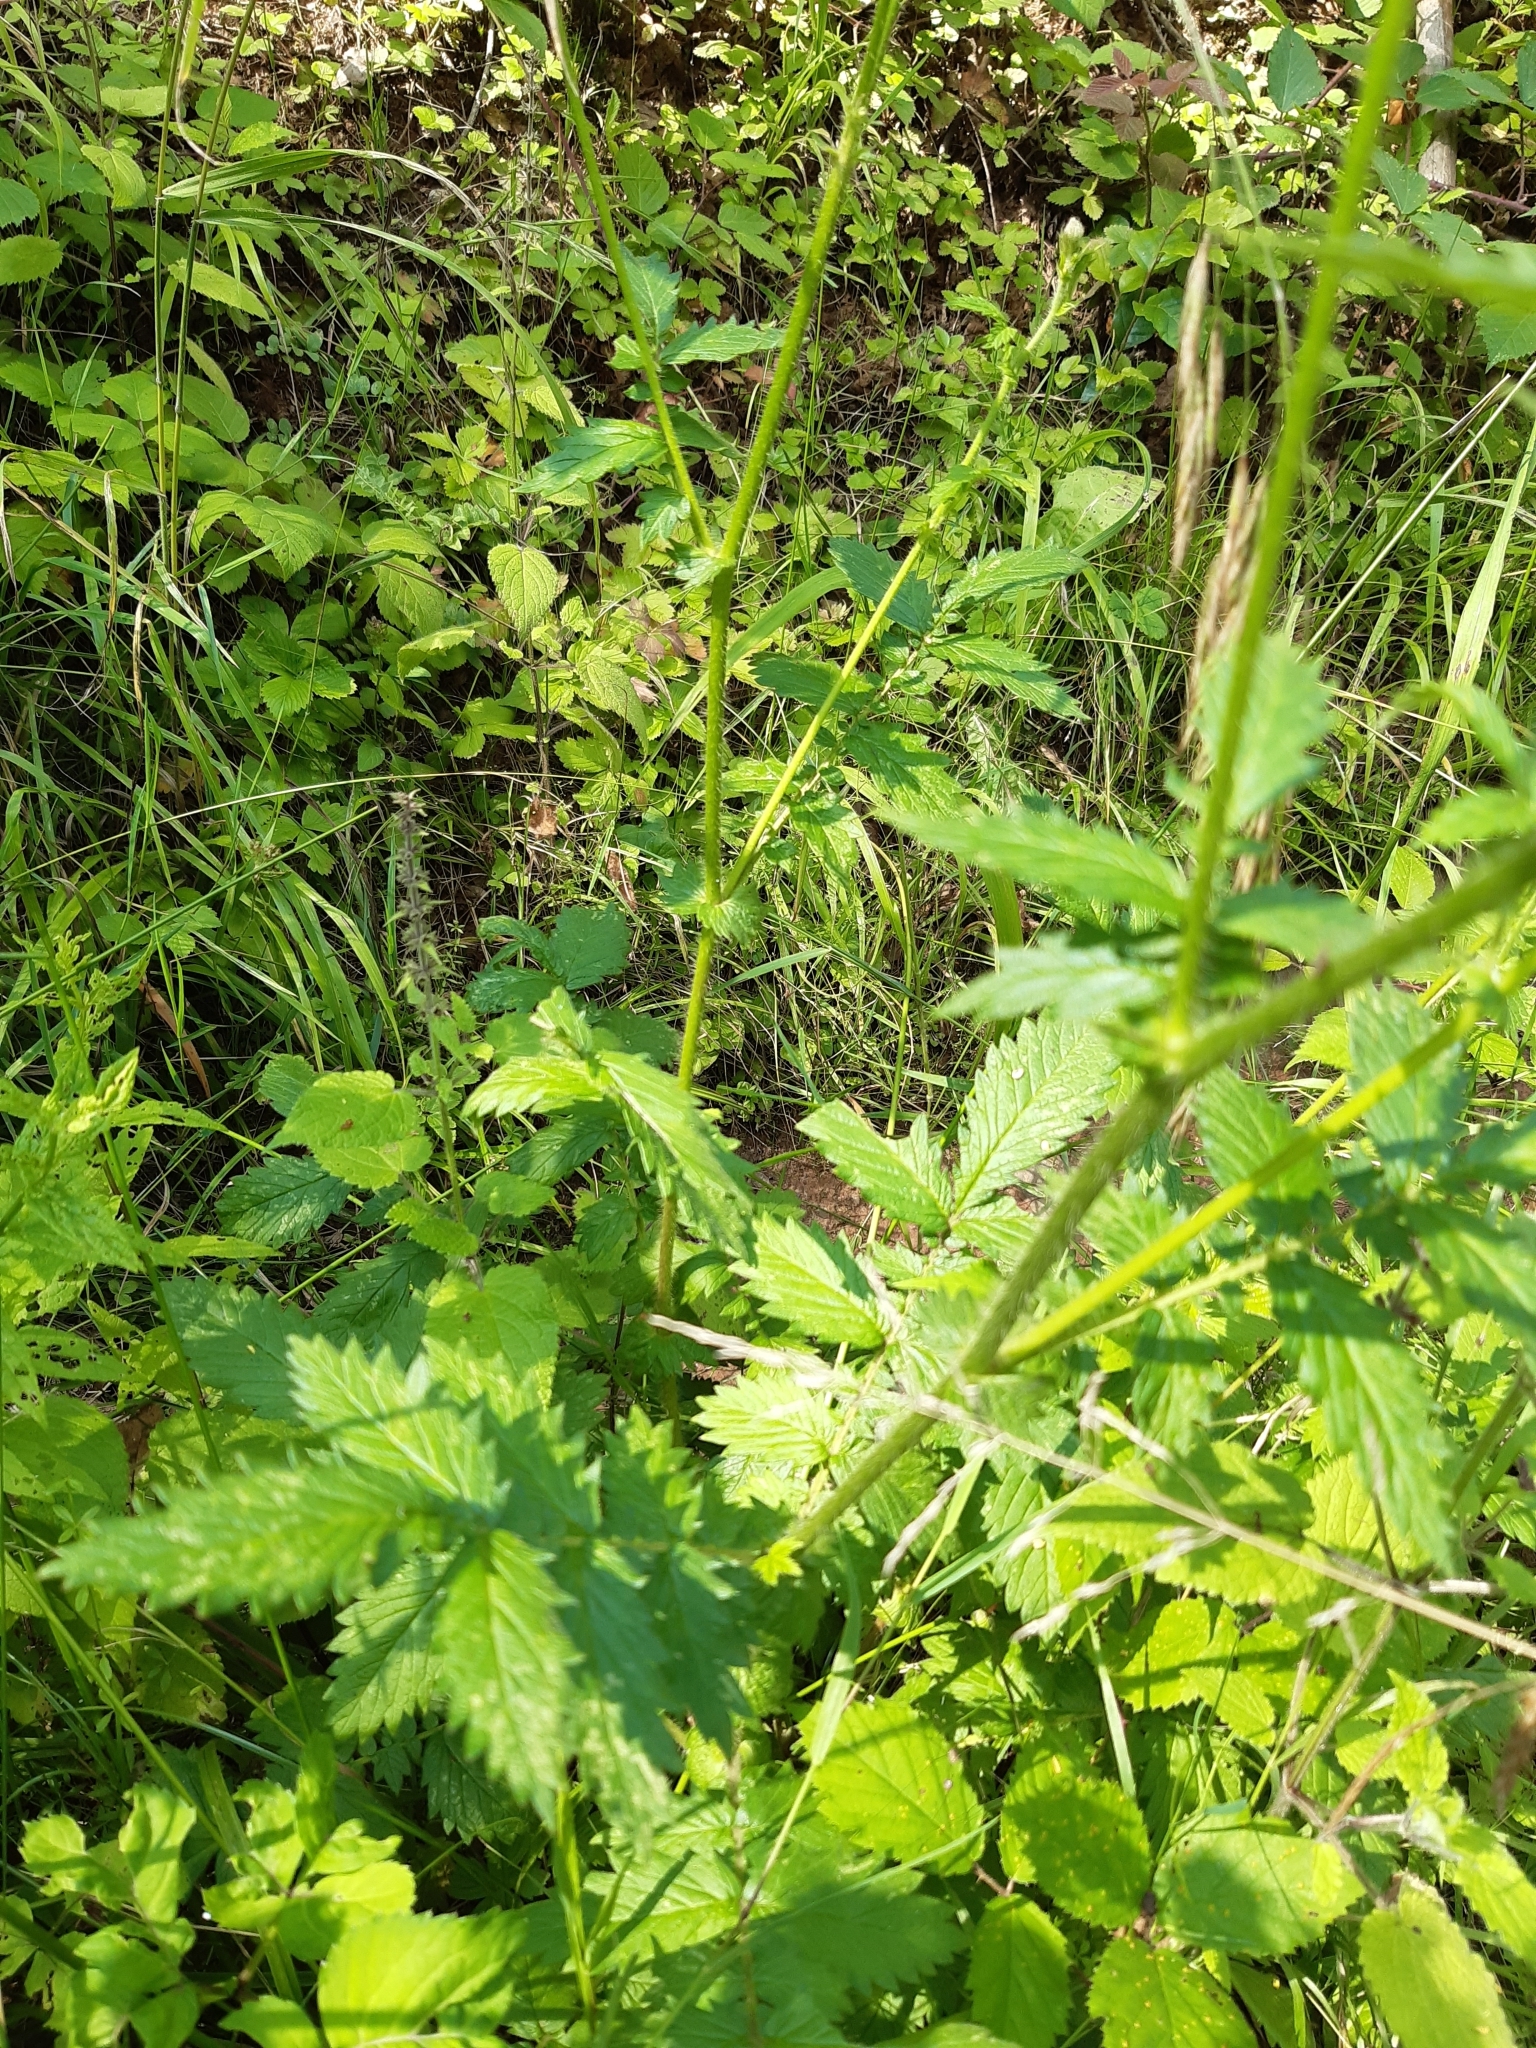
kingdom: Plantae
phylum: Tracheophyta
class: Magnoliopsida
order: Asterales
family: Asteraceae
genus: Eupatorium
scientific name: Eupatorium cannabinum
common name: Hemp-agrimony
